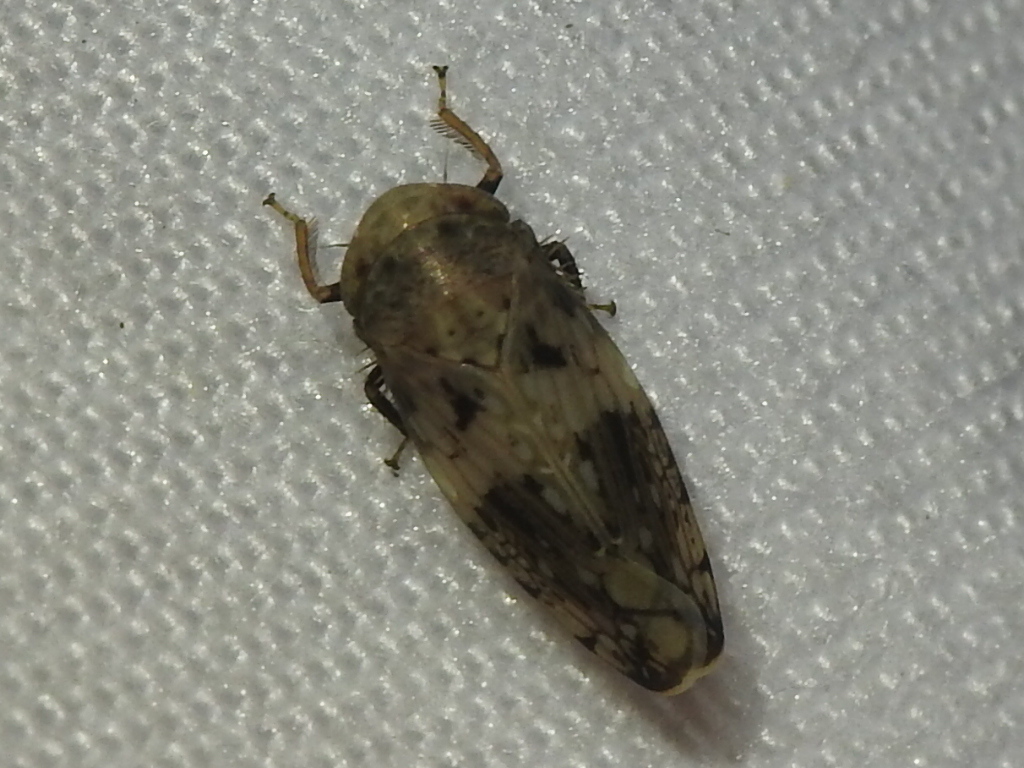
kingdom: Animalia
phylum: Arthropoda
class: Insecta
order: Hemiptera
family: Cicadellidae
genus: Menosoma
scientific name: Menosoma cinctum
